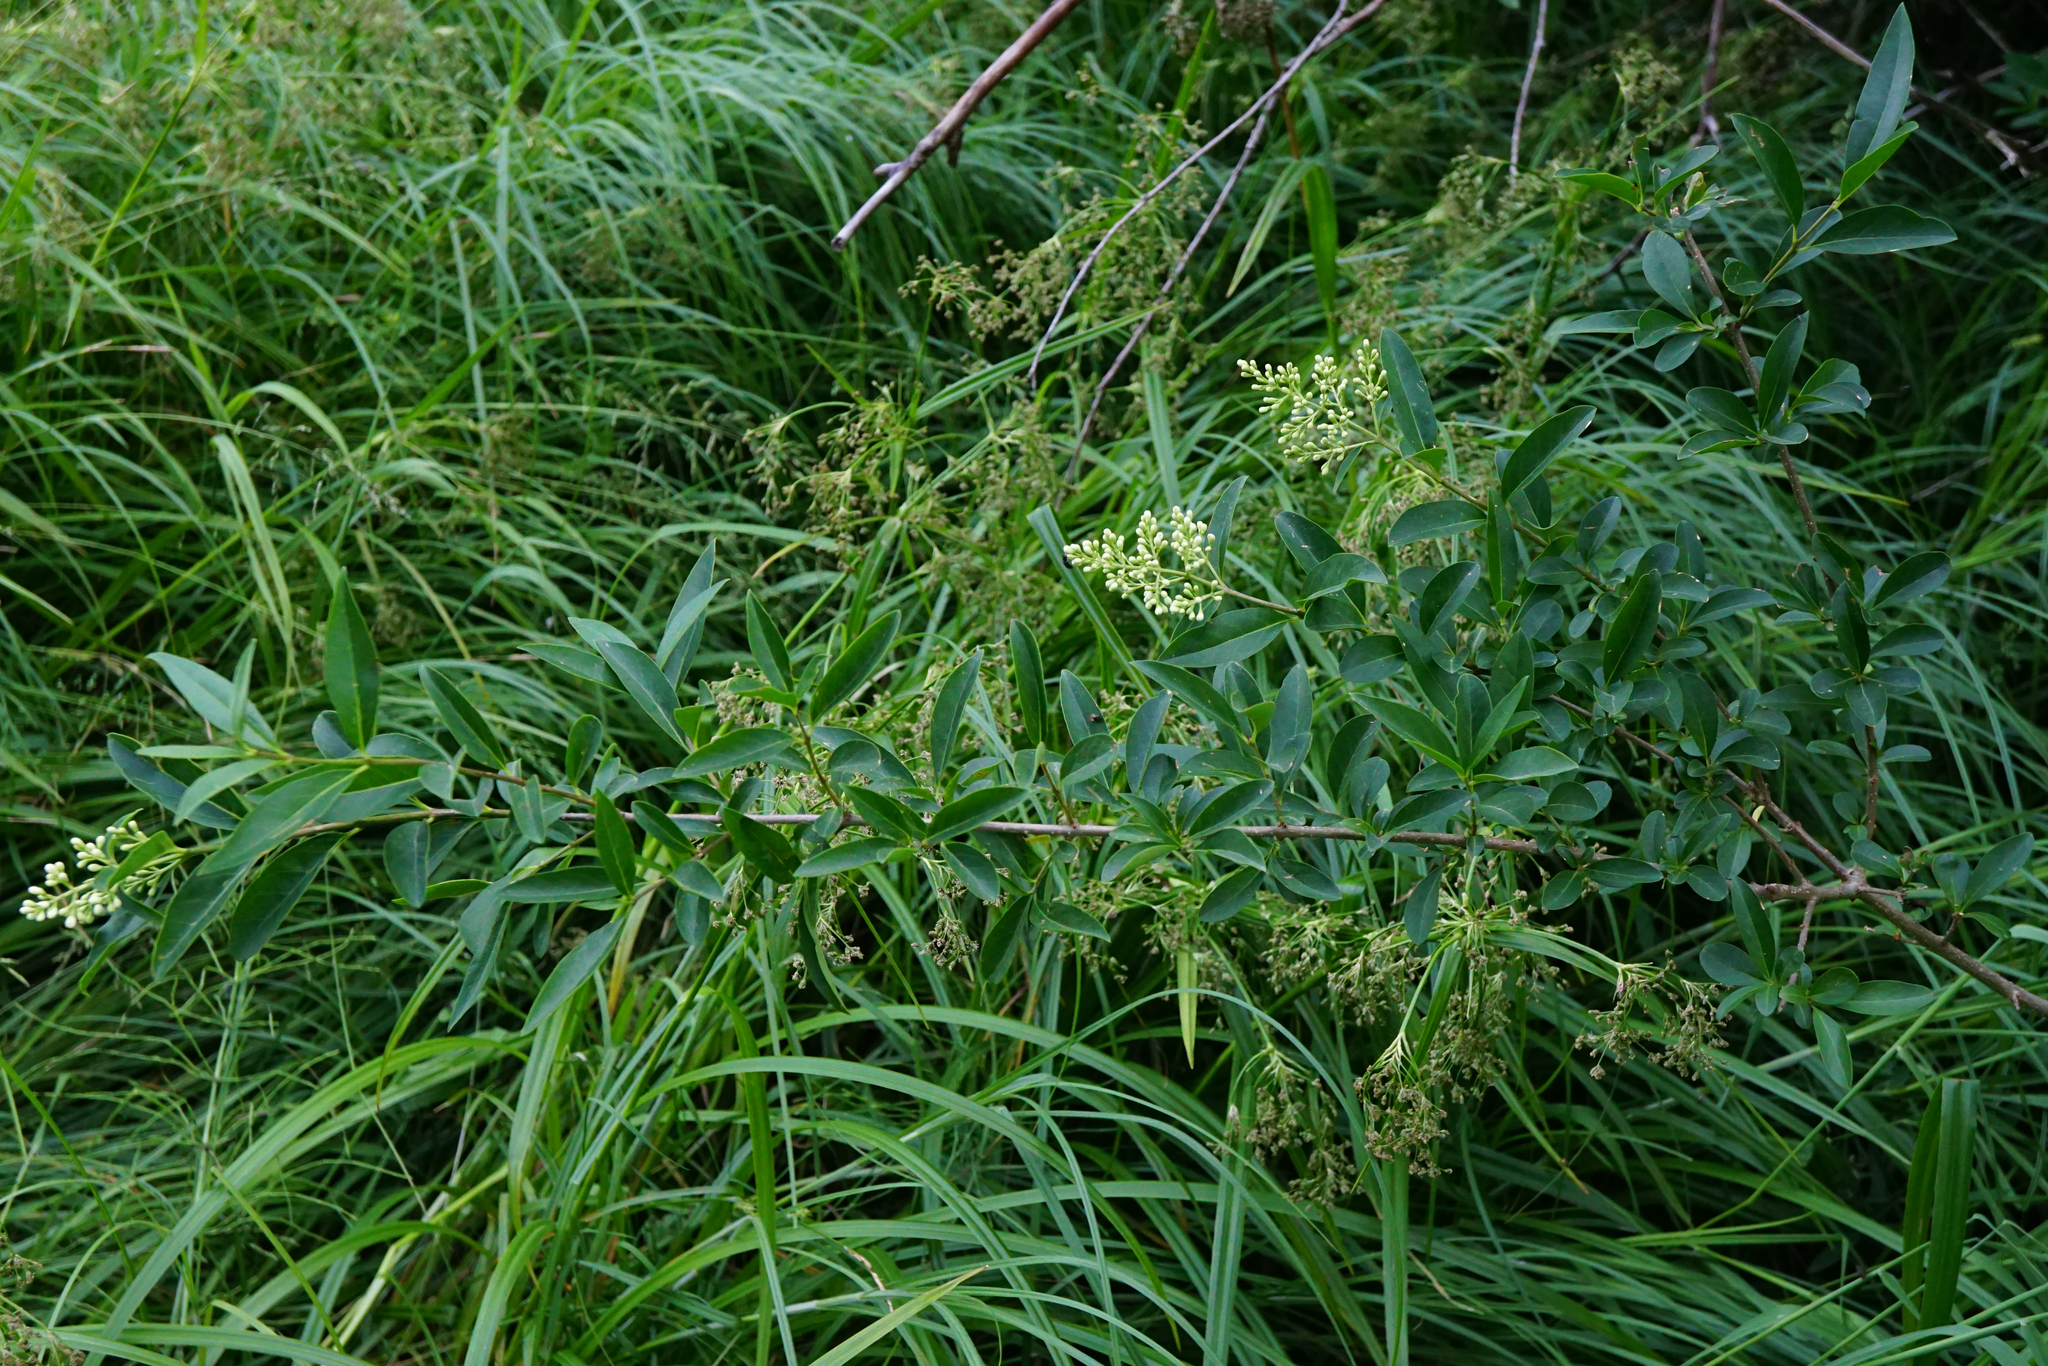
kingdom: Plantae
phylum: Tracheophyta
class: Magnoliopsida
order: Lamiales
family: Oleaceae
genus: Ligustrum
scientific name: Ligustrum vulgare
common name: Wild privet
